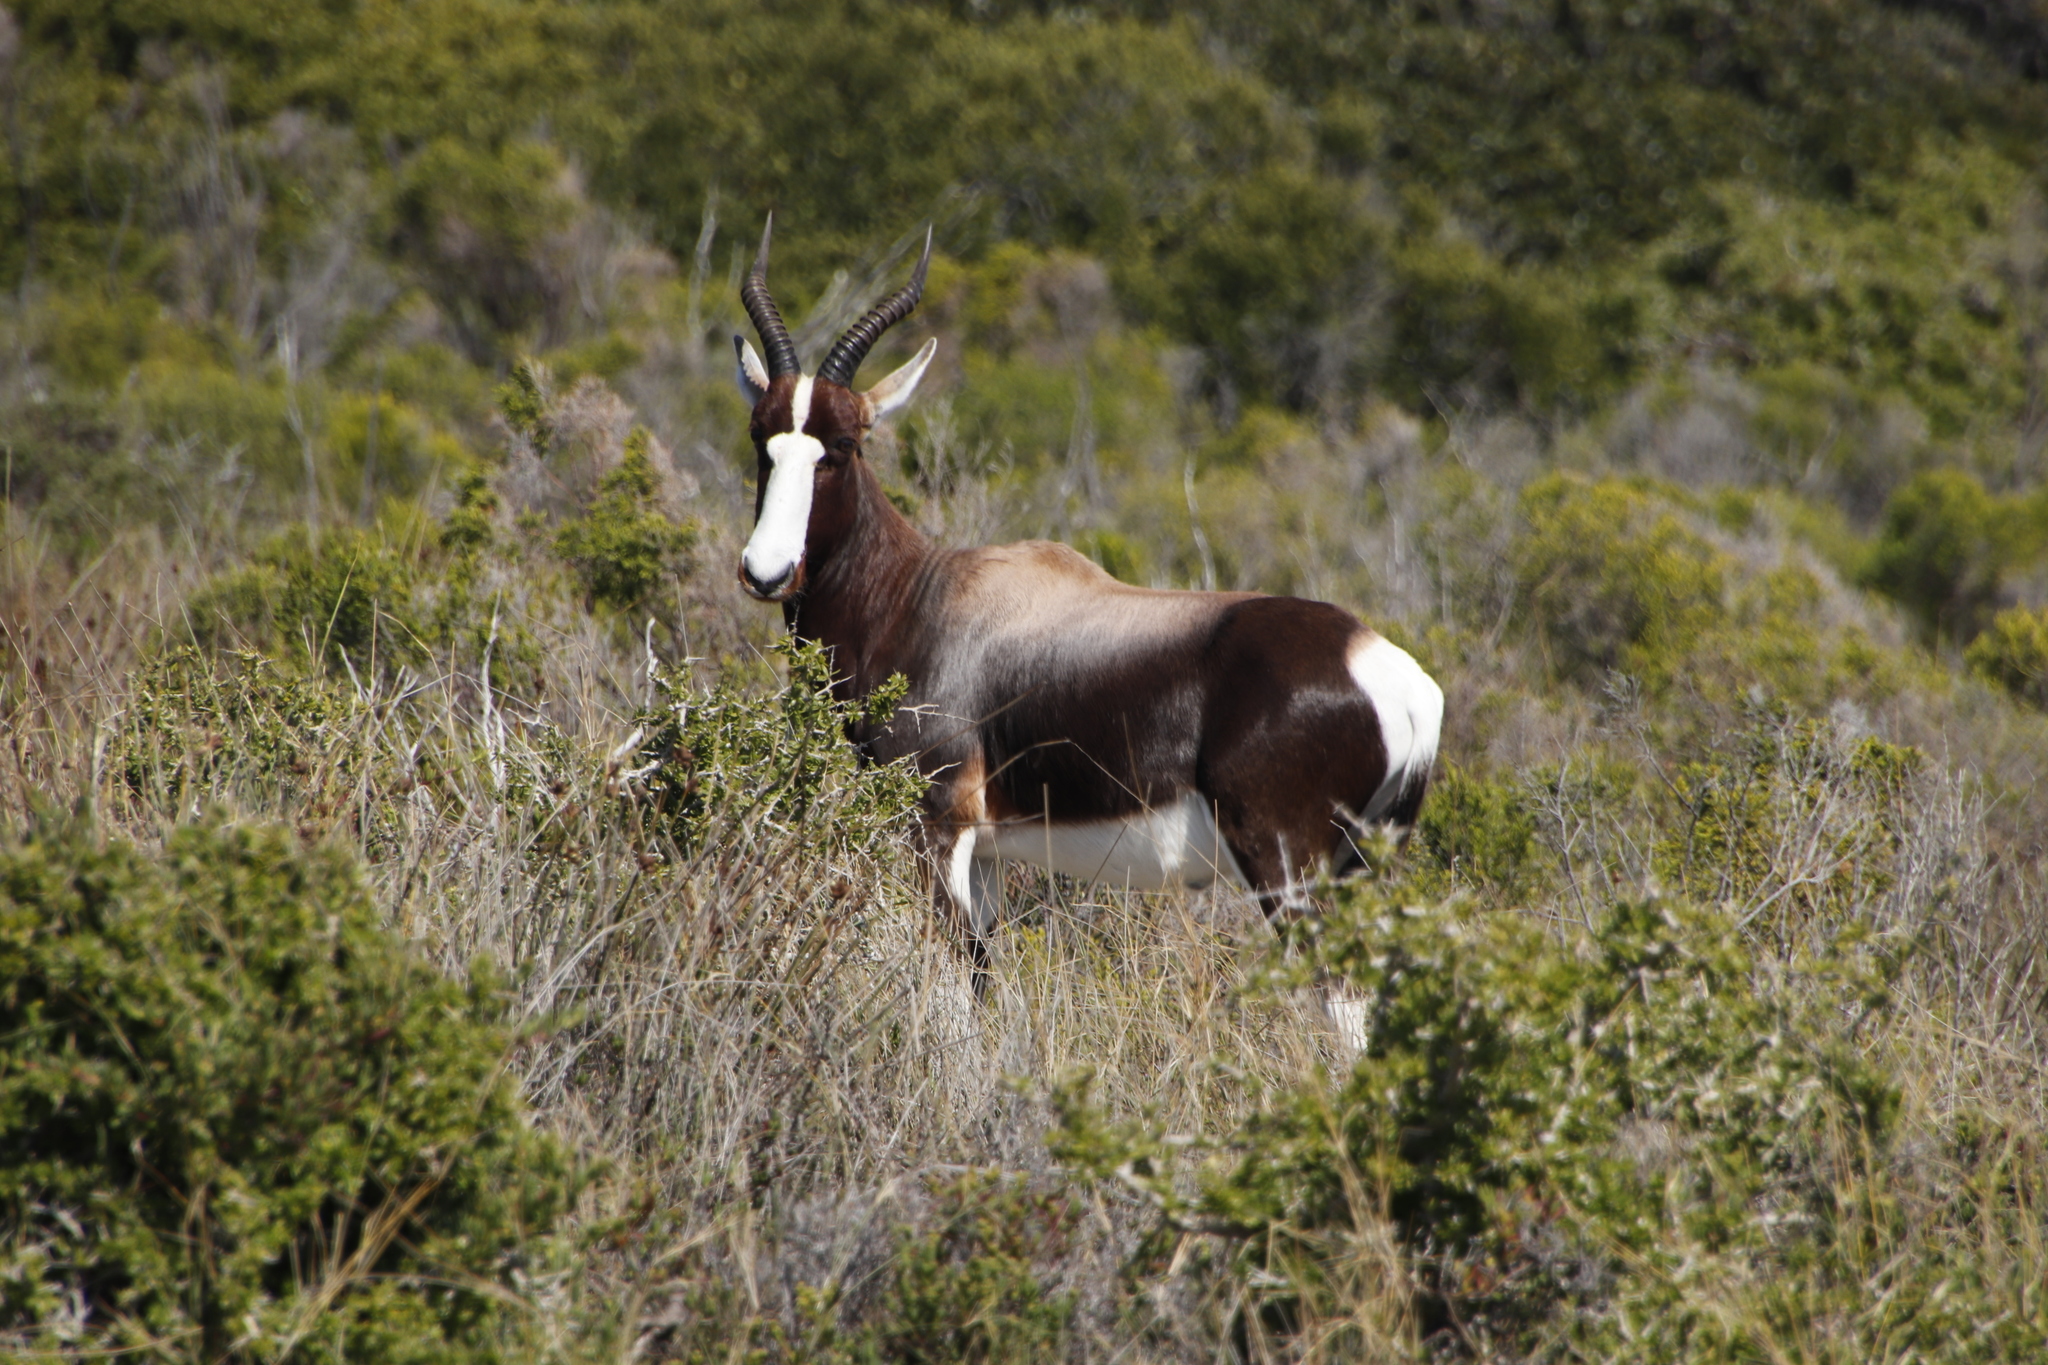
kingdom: Animalia
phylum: Chordata
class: Mammalia
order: Artiodactyla
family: Bovidae
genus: Damaliscus
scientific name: Damaliscus pygargus
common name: Bontebok
